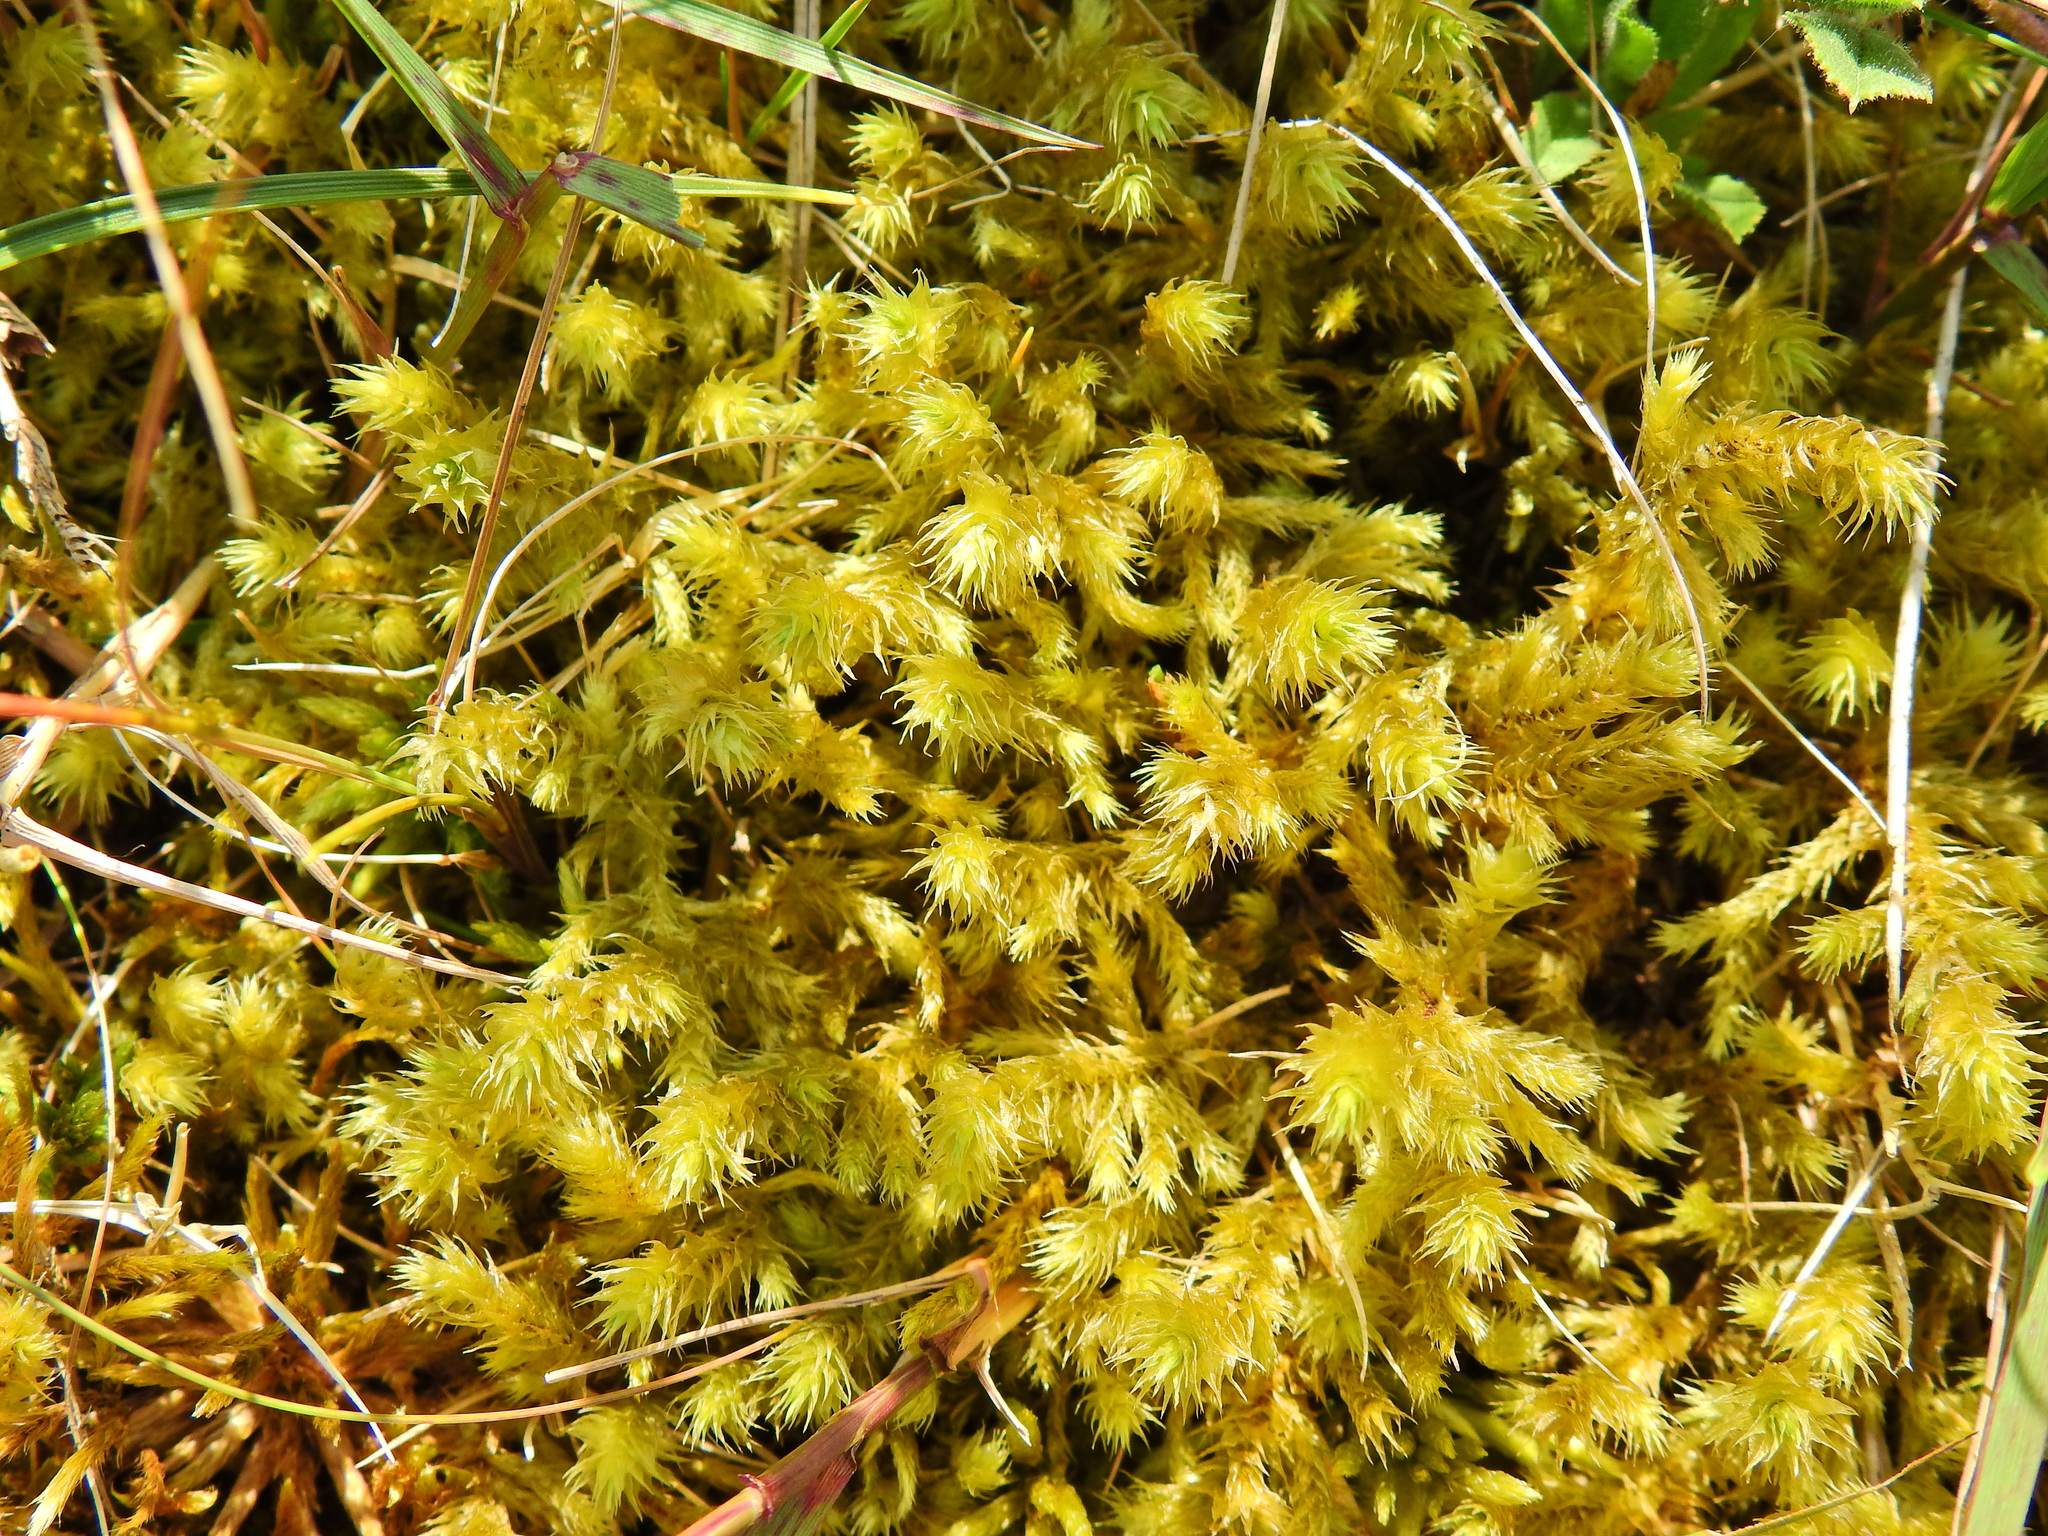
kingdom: Plantae
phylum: Bryophyta
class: Bryopsida
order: Hypnales
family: Hylocomiaceae
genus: Hylocomiadelphus
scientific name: Hylocomiadelphus triquetrus
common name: Rough goose neck moss
